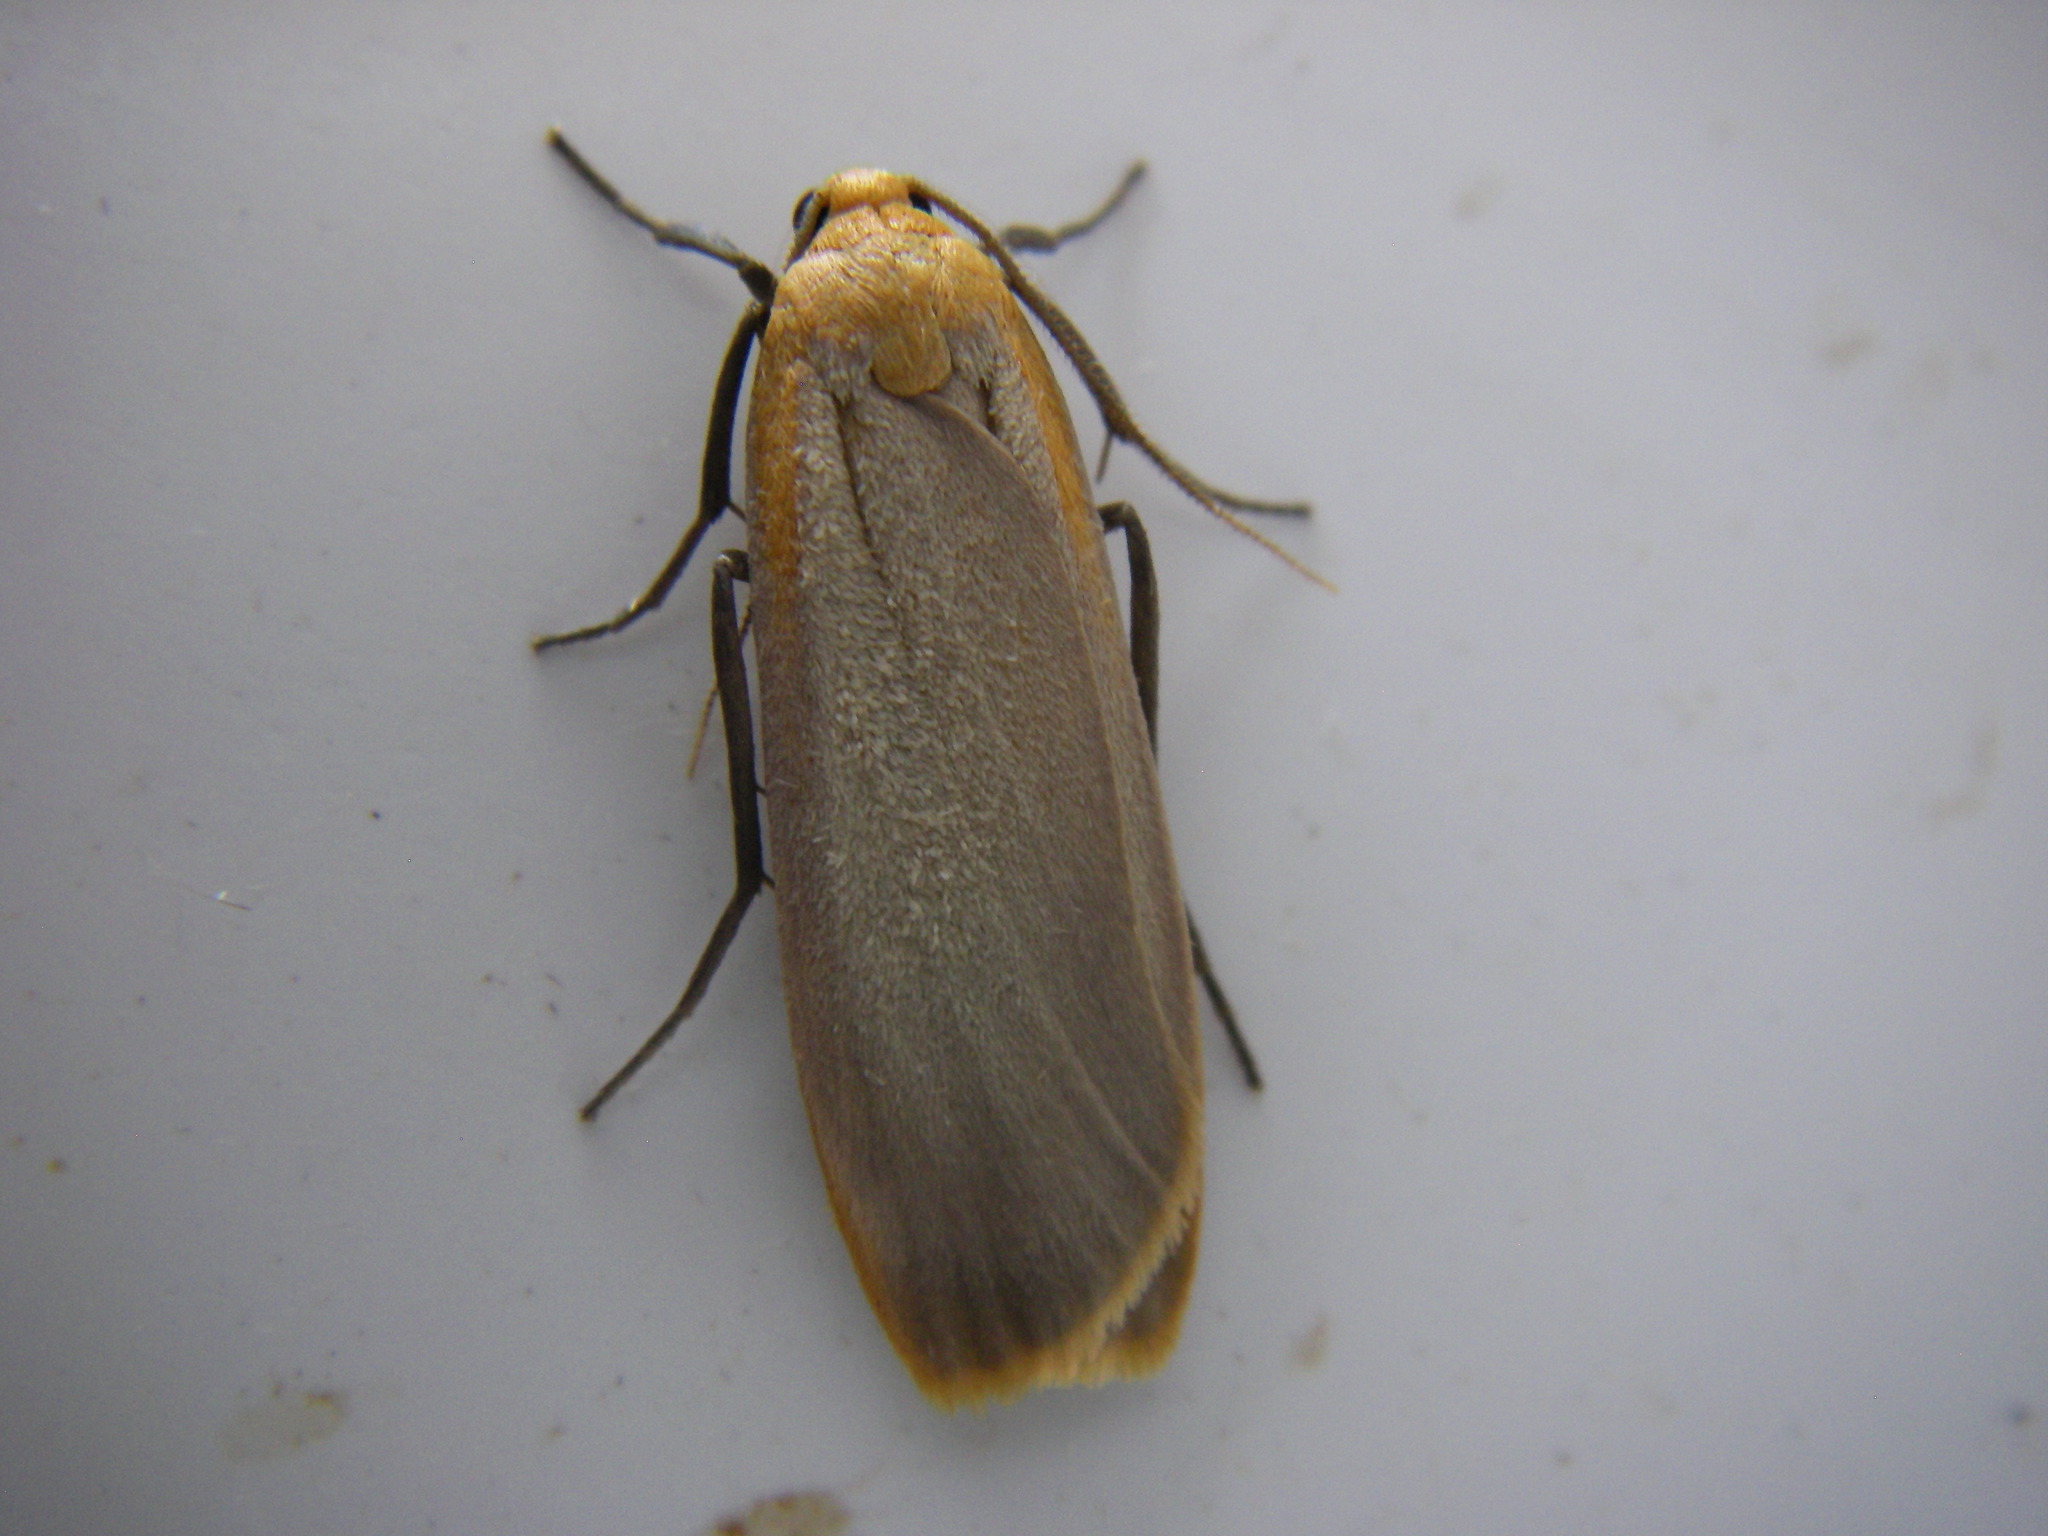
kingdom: Animalia
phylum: Arthropoda
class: Insecta
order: Lepidoptera
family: Erebidae
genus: Katha
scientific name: Katha depressa
